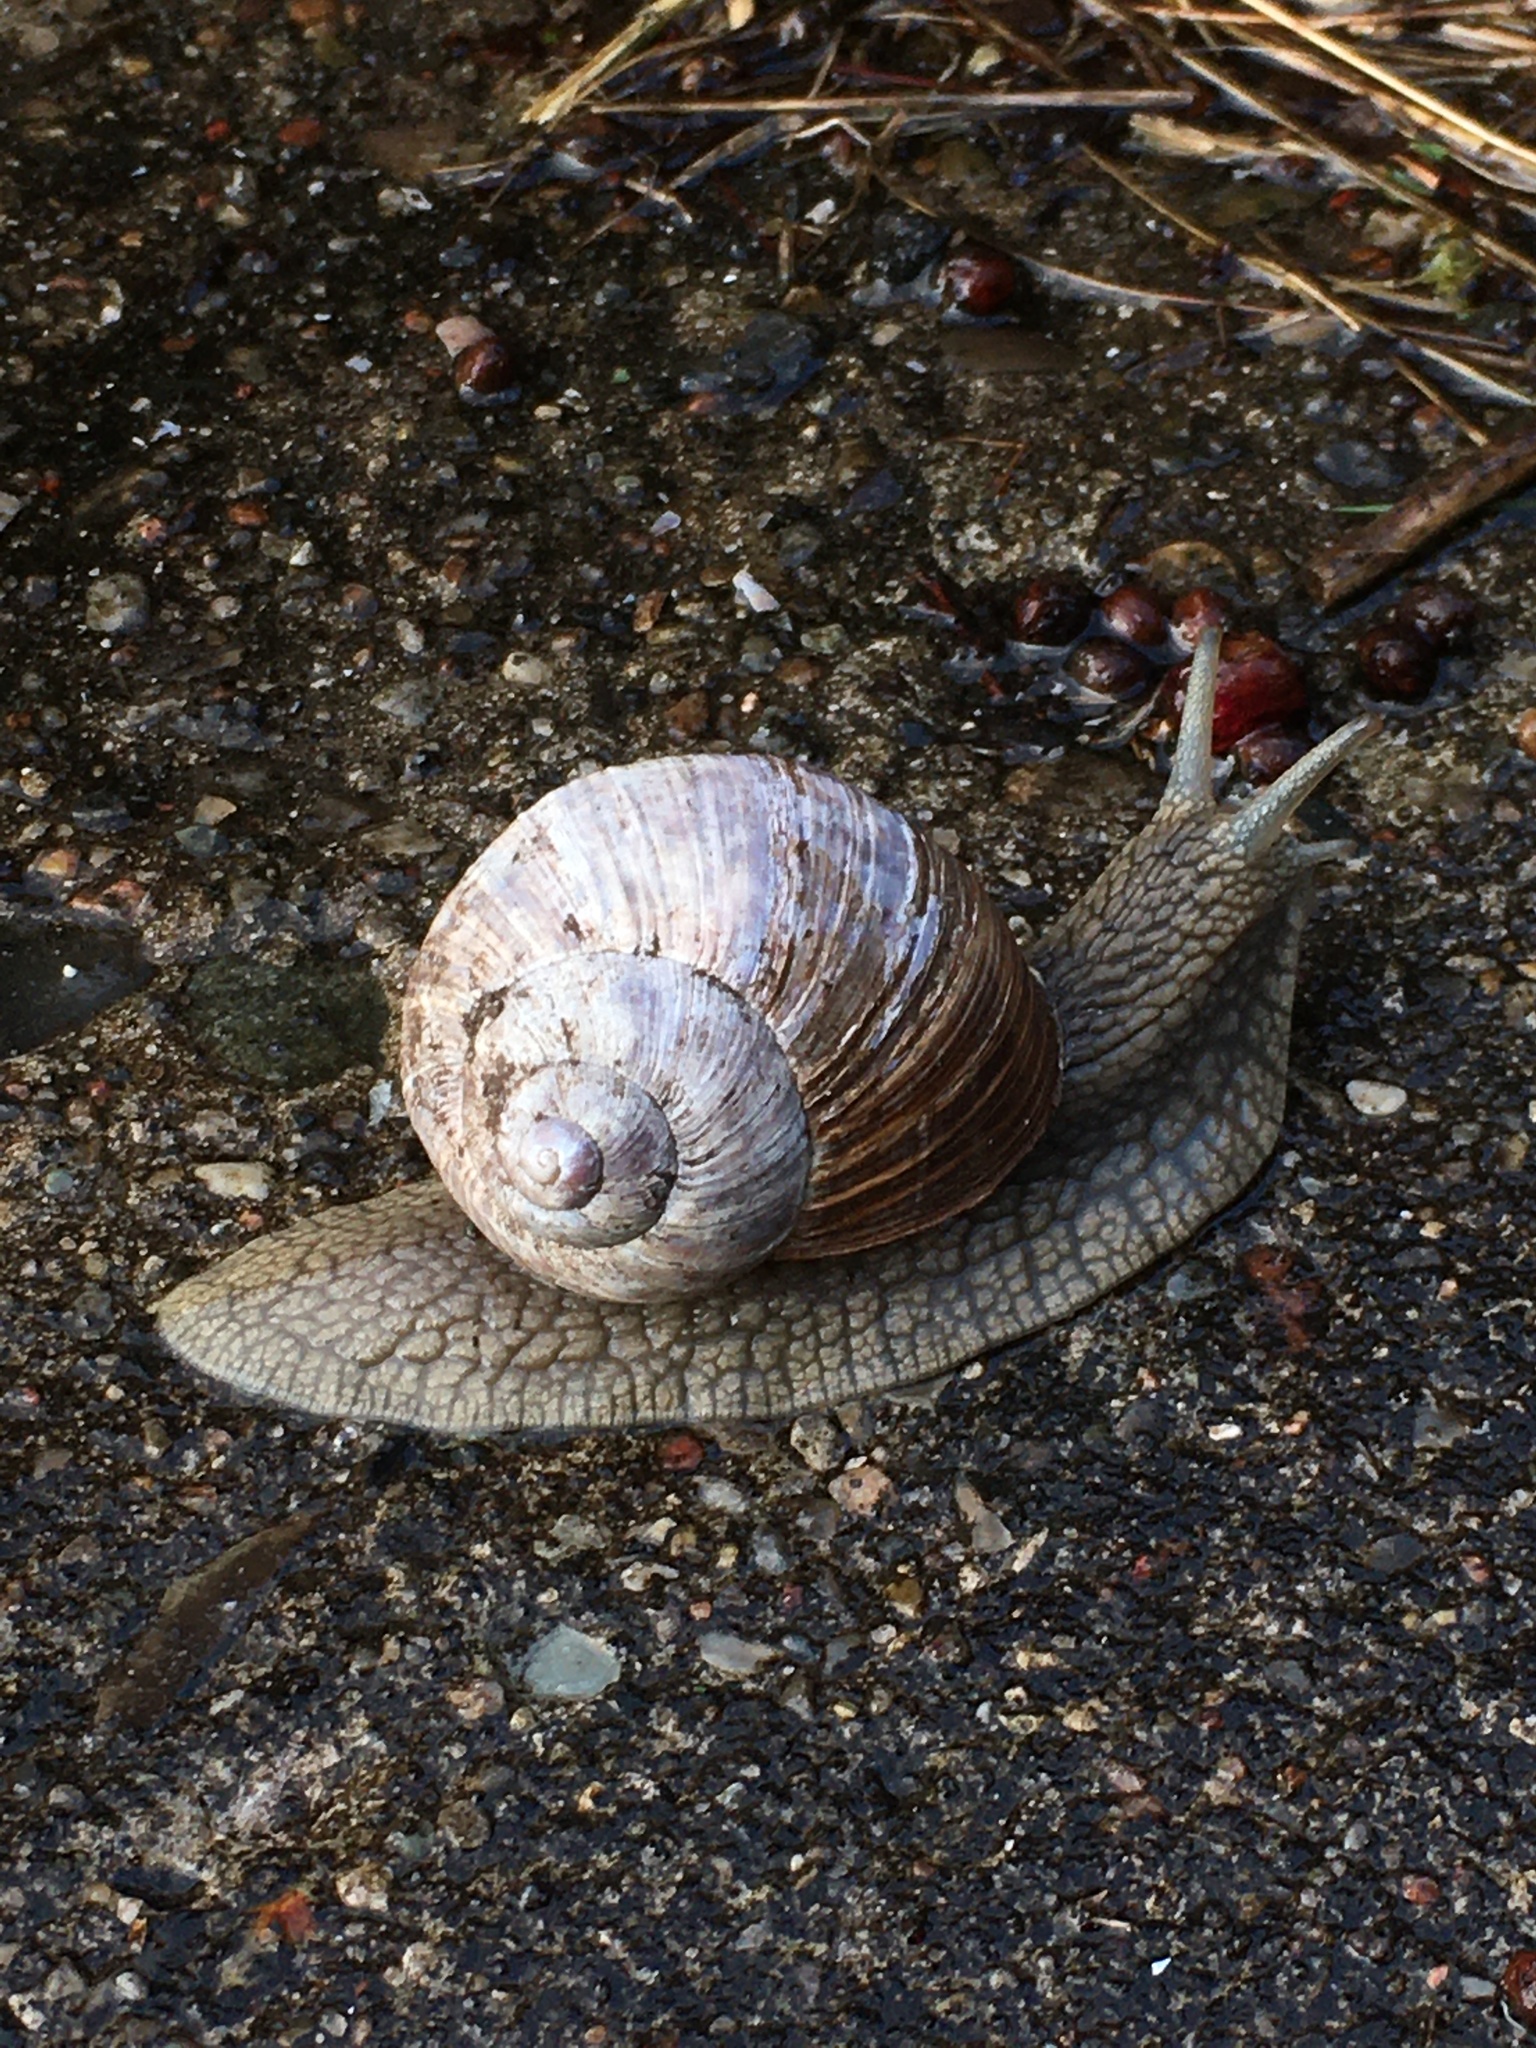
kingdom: Animalia
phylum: Mollusca
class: Gastropoda
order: Stylommatophora
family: Helicidae
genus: Helix
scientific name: Helix pomatia
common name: Roman snail
